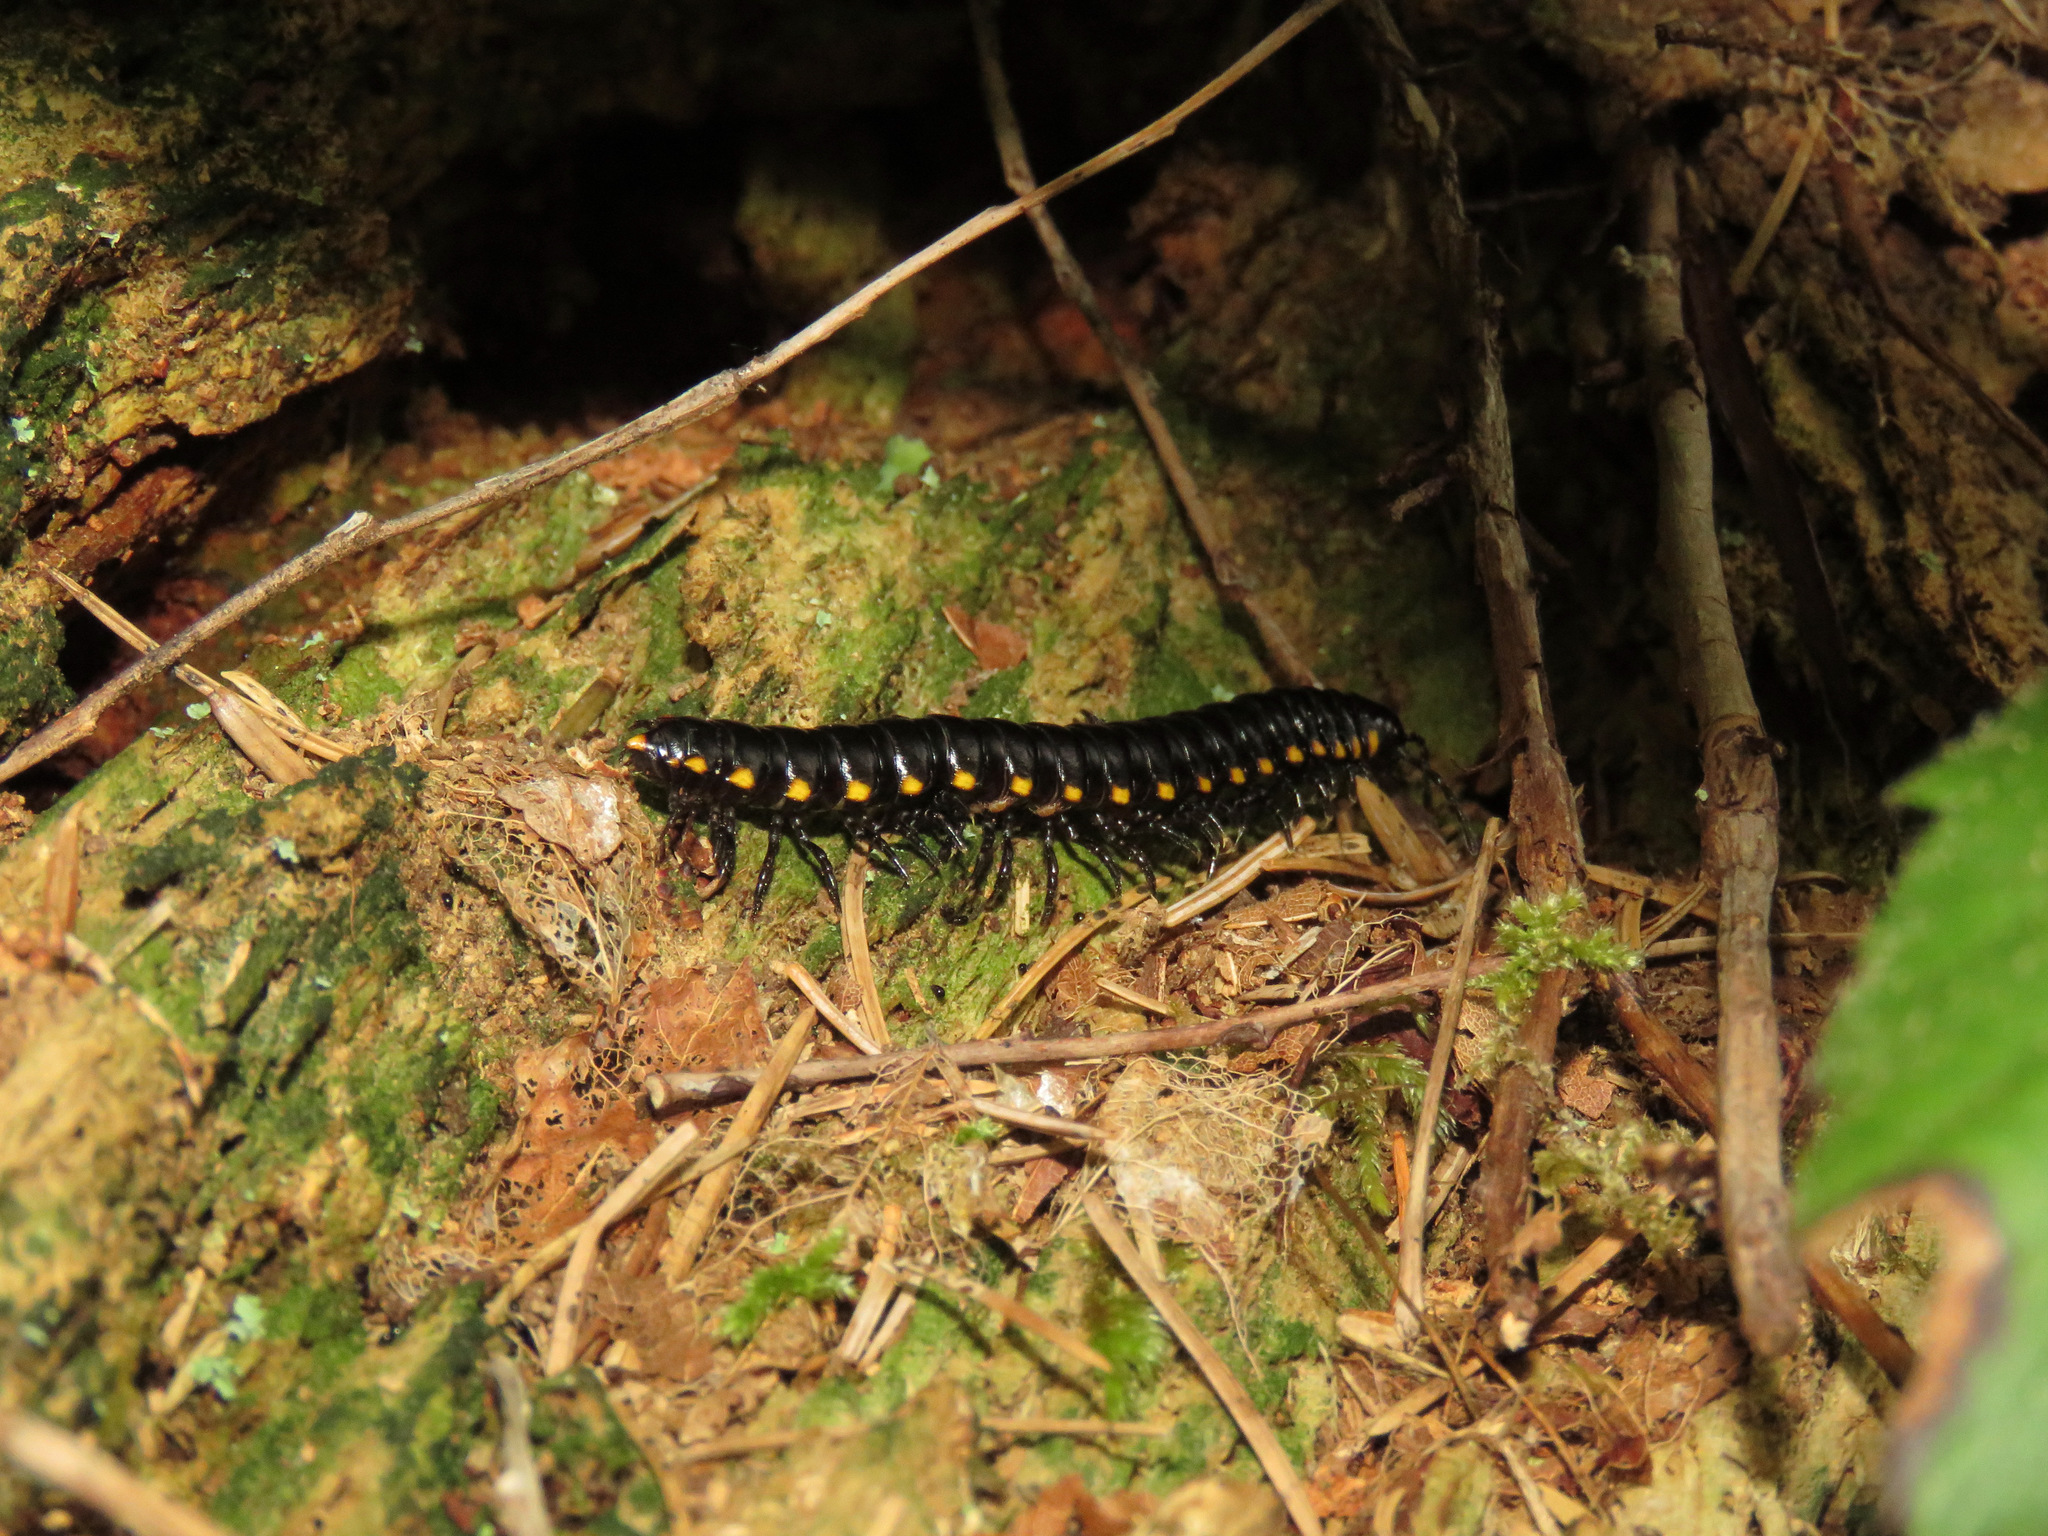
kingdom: Animalia
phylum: Arthropoda
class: Diplopoda
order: Polydesmida
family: Xystodesmidae
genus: Harpaphe
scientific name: Harpaphe haydeniana
